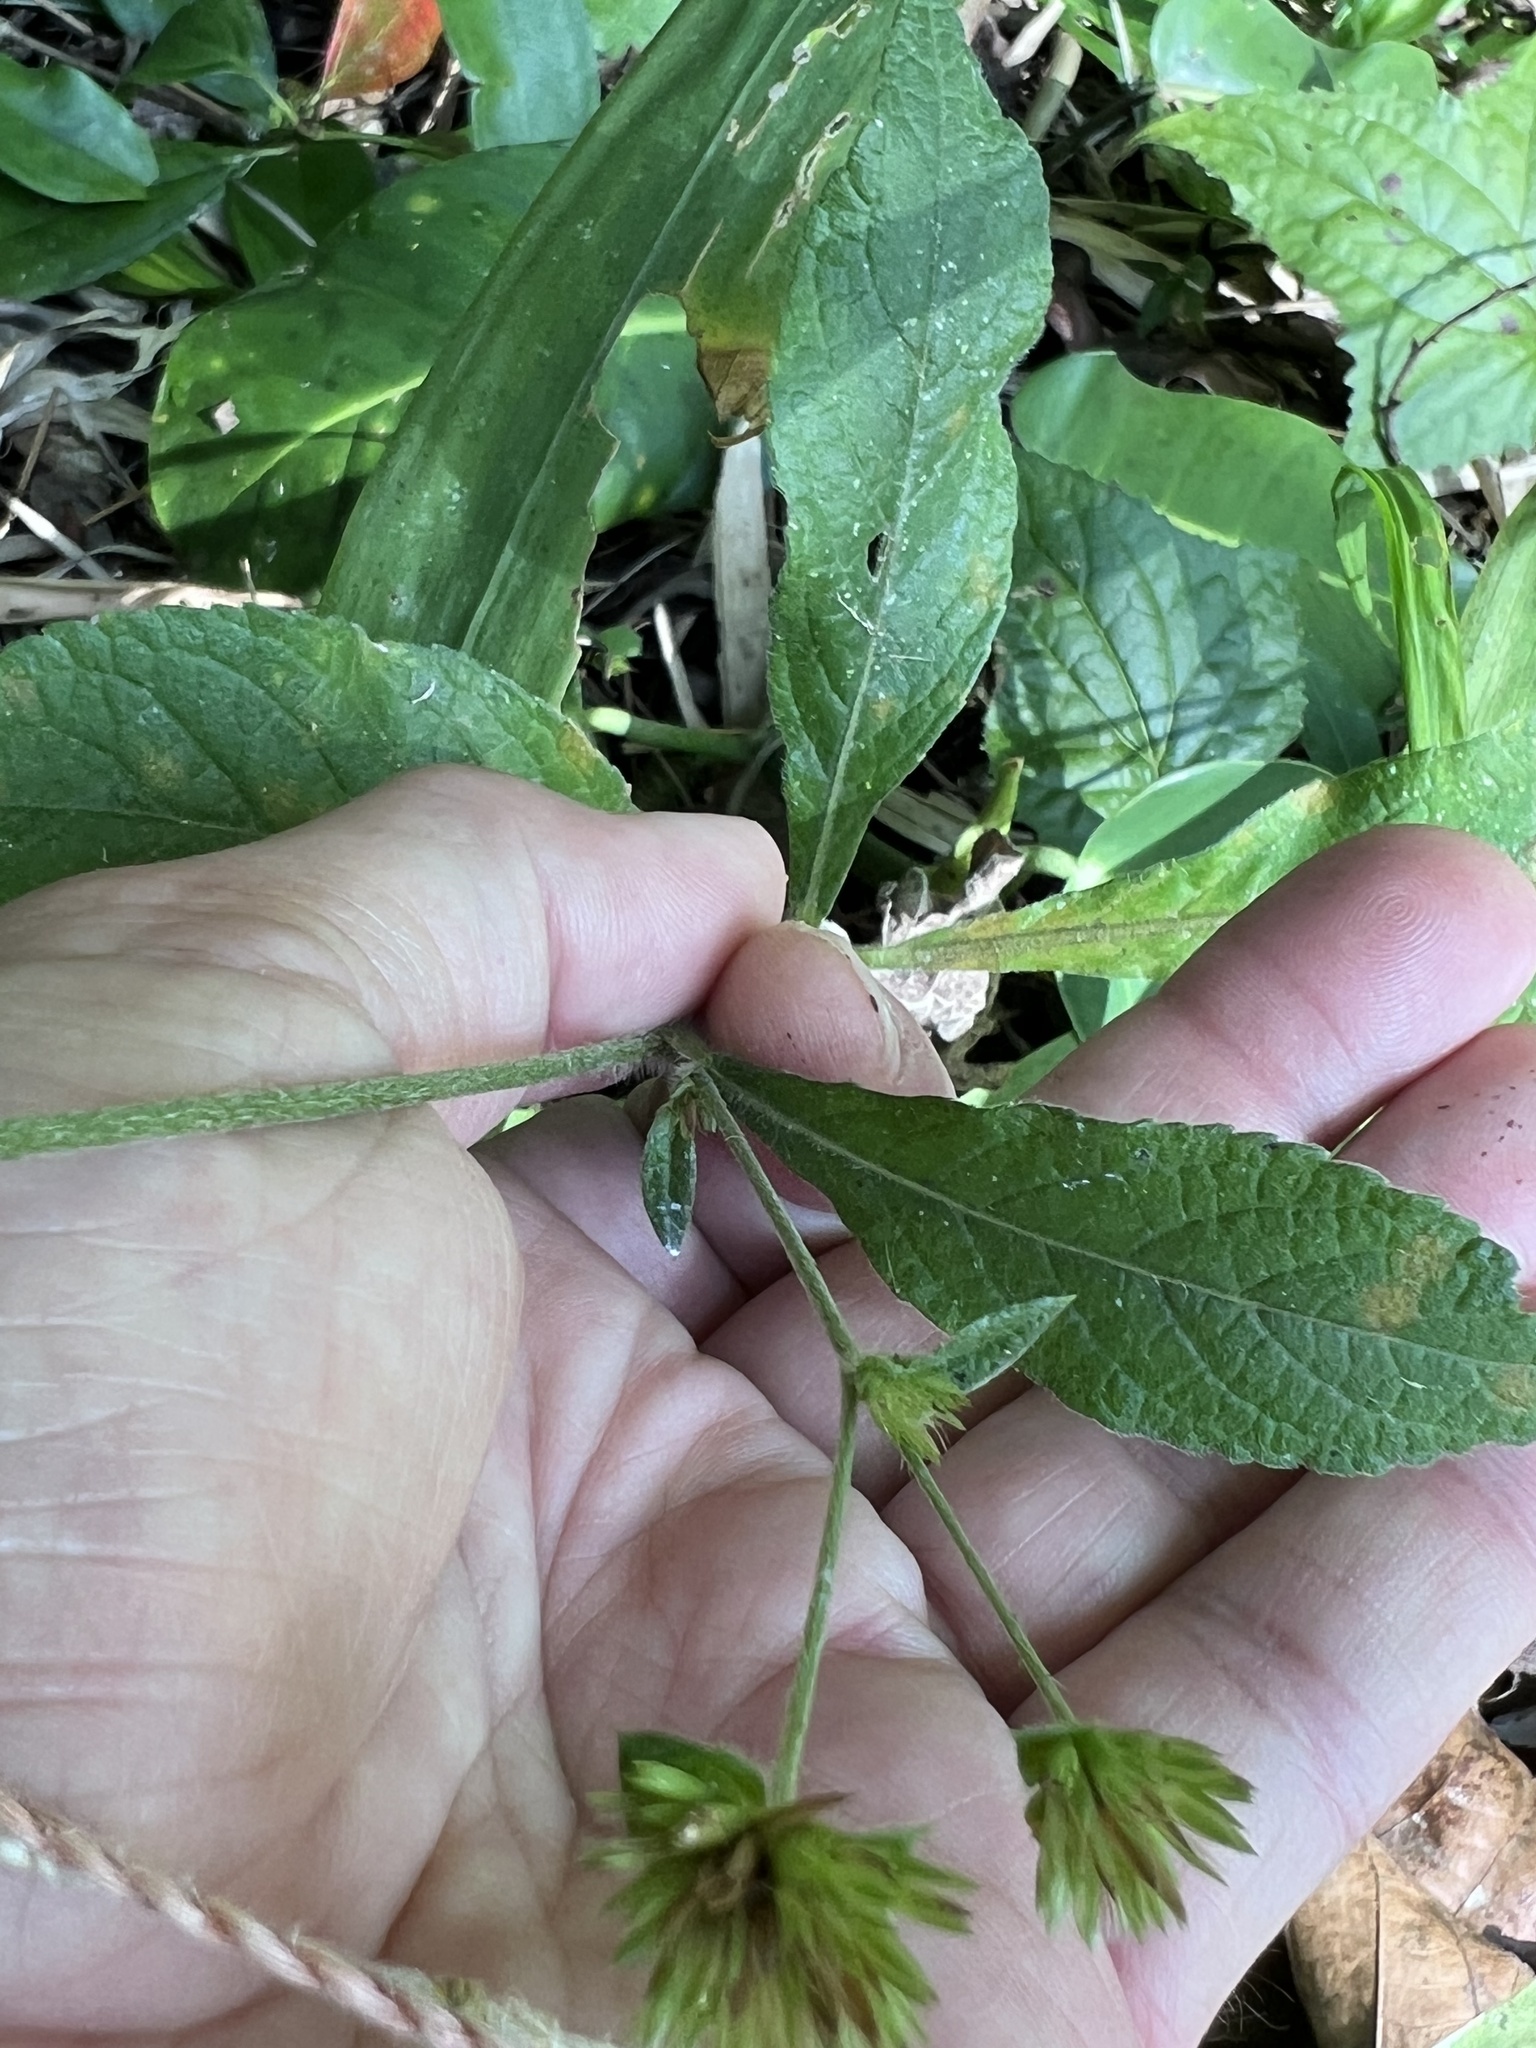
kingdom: Plantae
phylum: Tracheophyta
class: Magnoliopsida
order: Asterales
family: Asteraceae
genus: Elephantopus
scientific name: Elephantopus mollis
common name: Soft elephantsfoot
